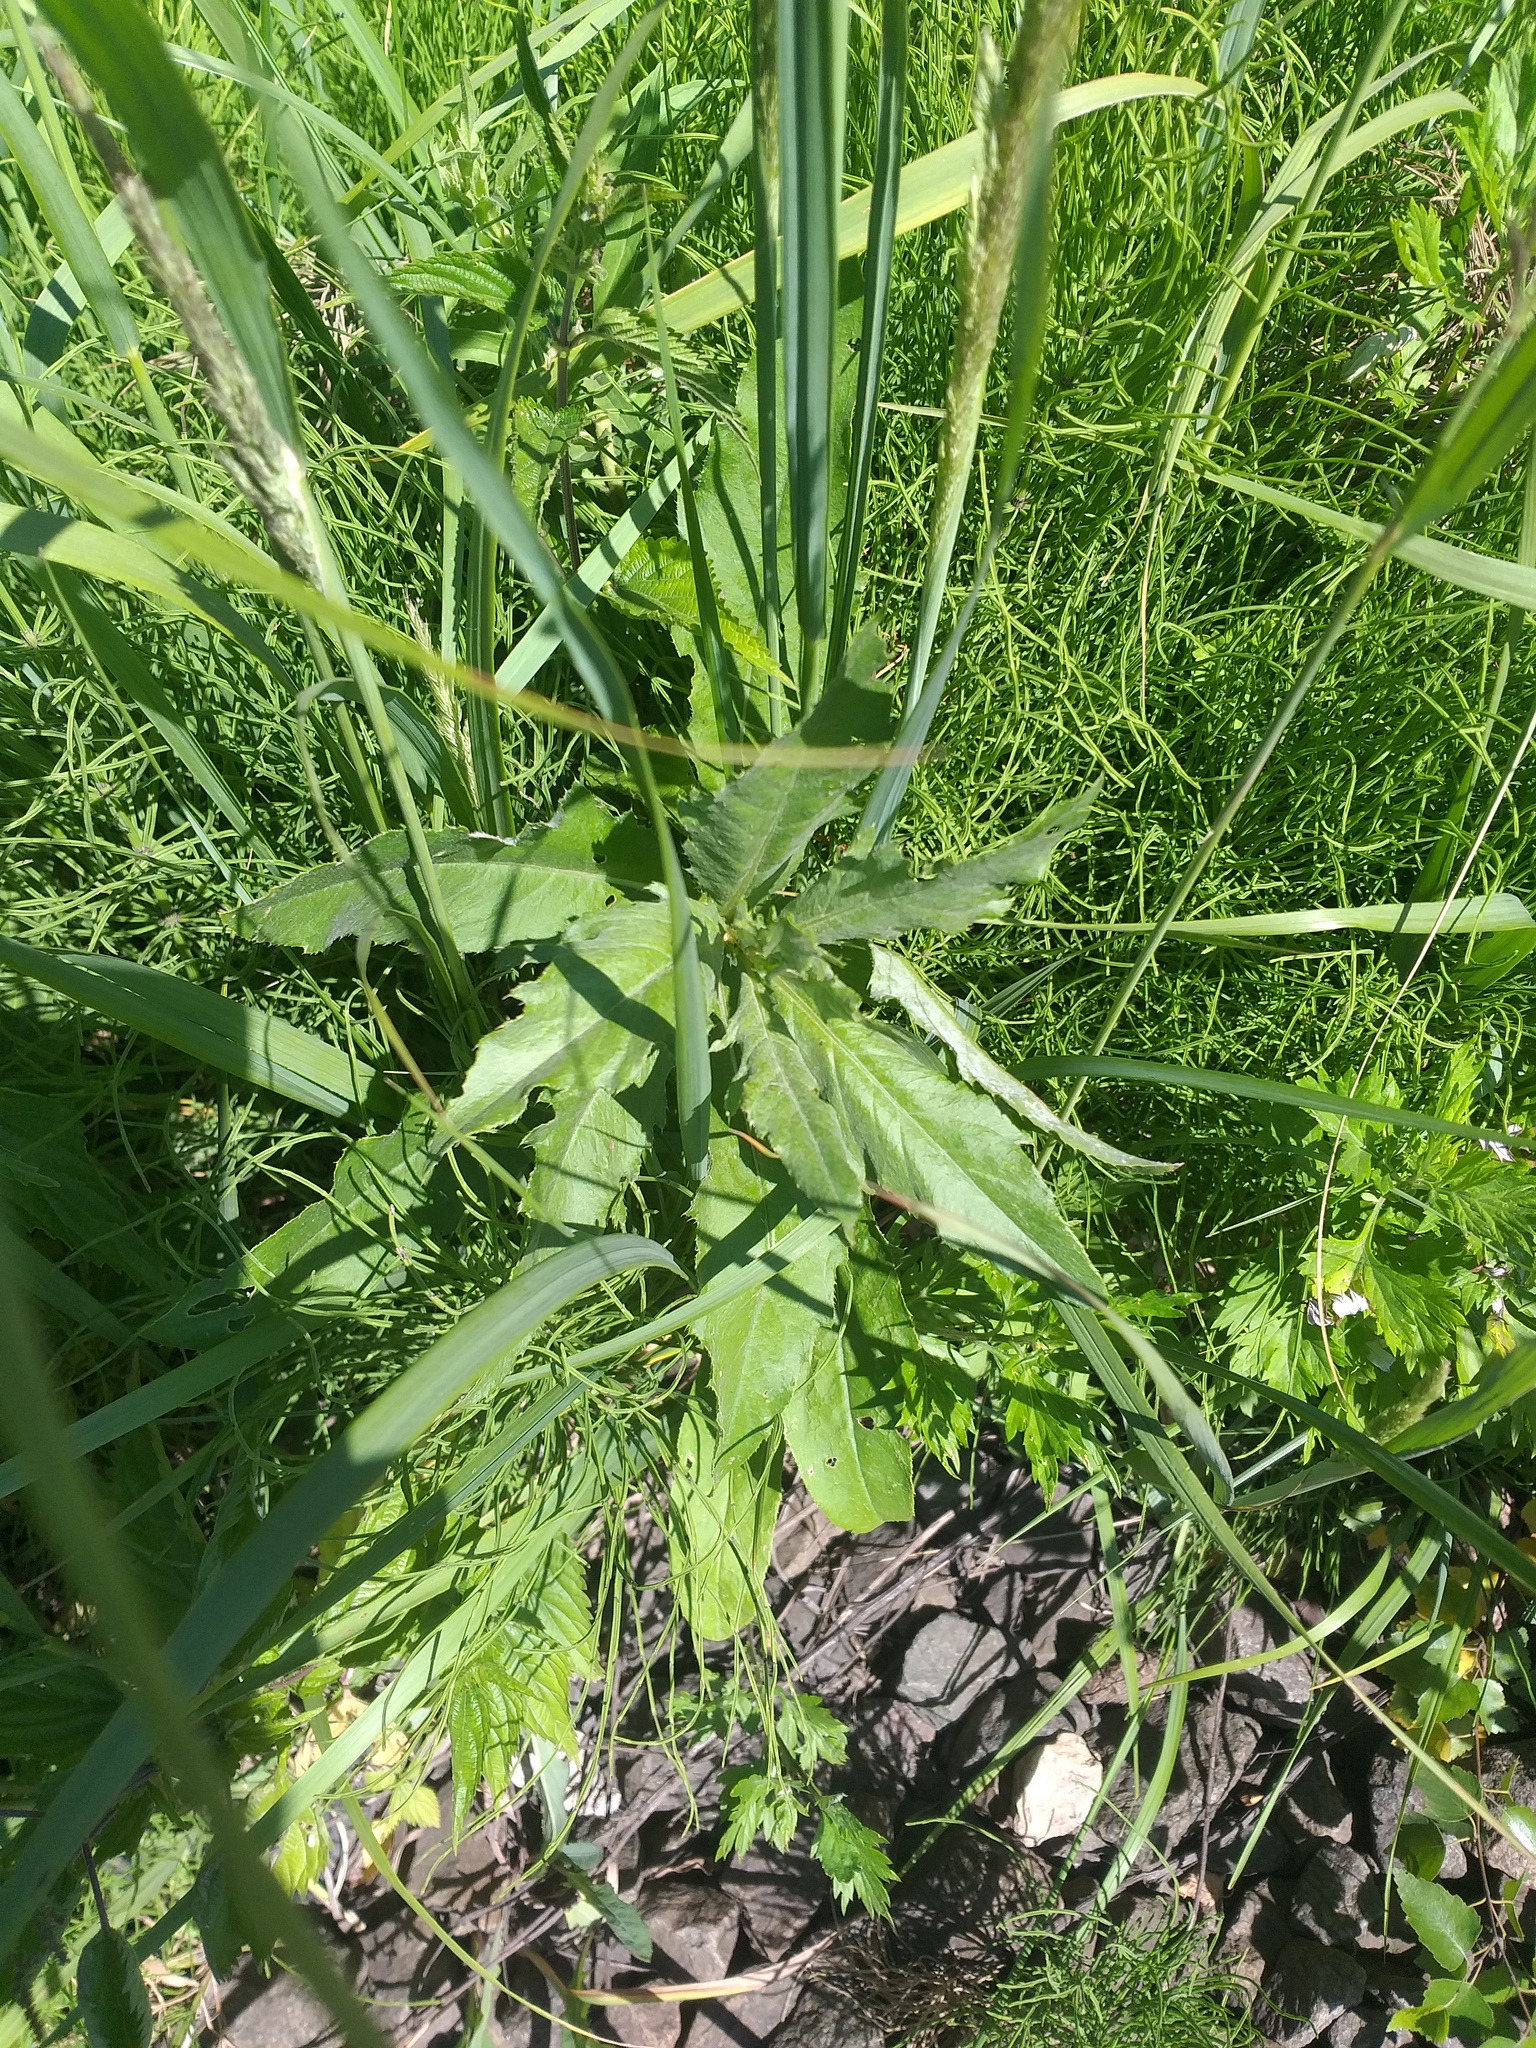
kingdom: Plantae
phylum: Tracheophyta
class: Magnoliopsida
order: Asterales
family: Asteraceae
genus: Cirsium
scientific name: Cirsium arvense
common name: Creeping thistle
